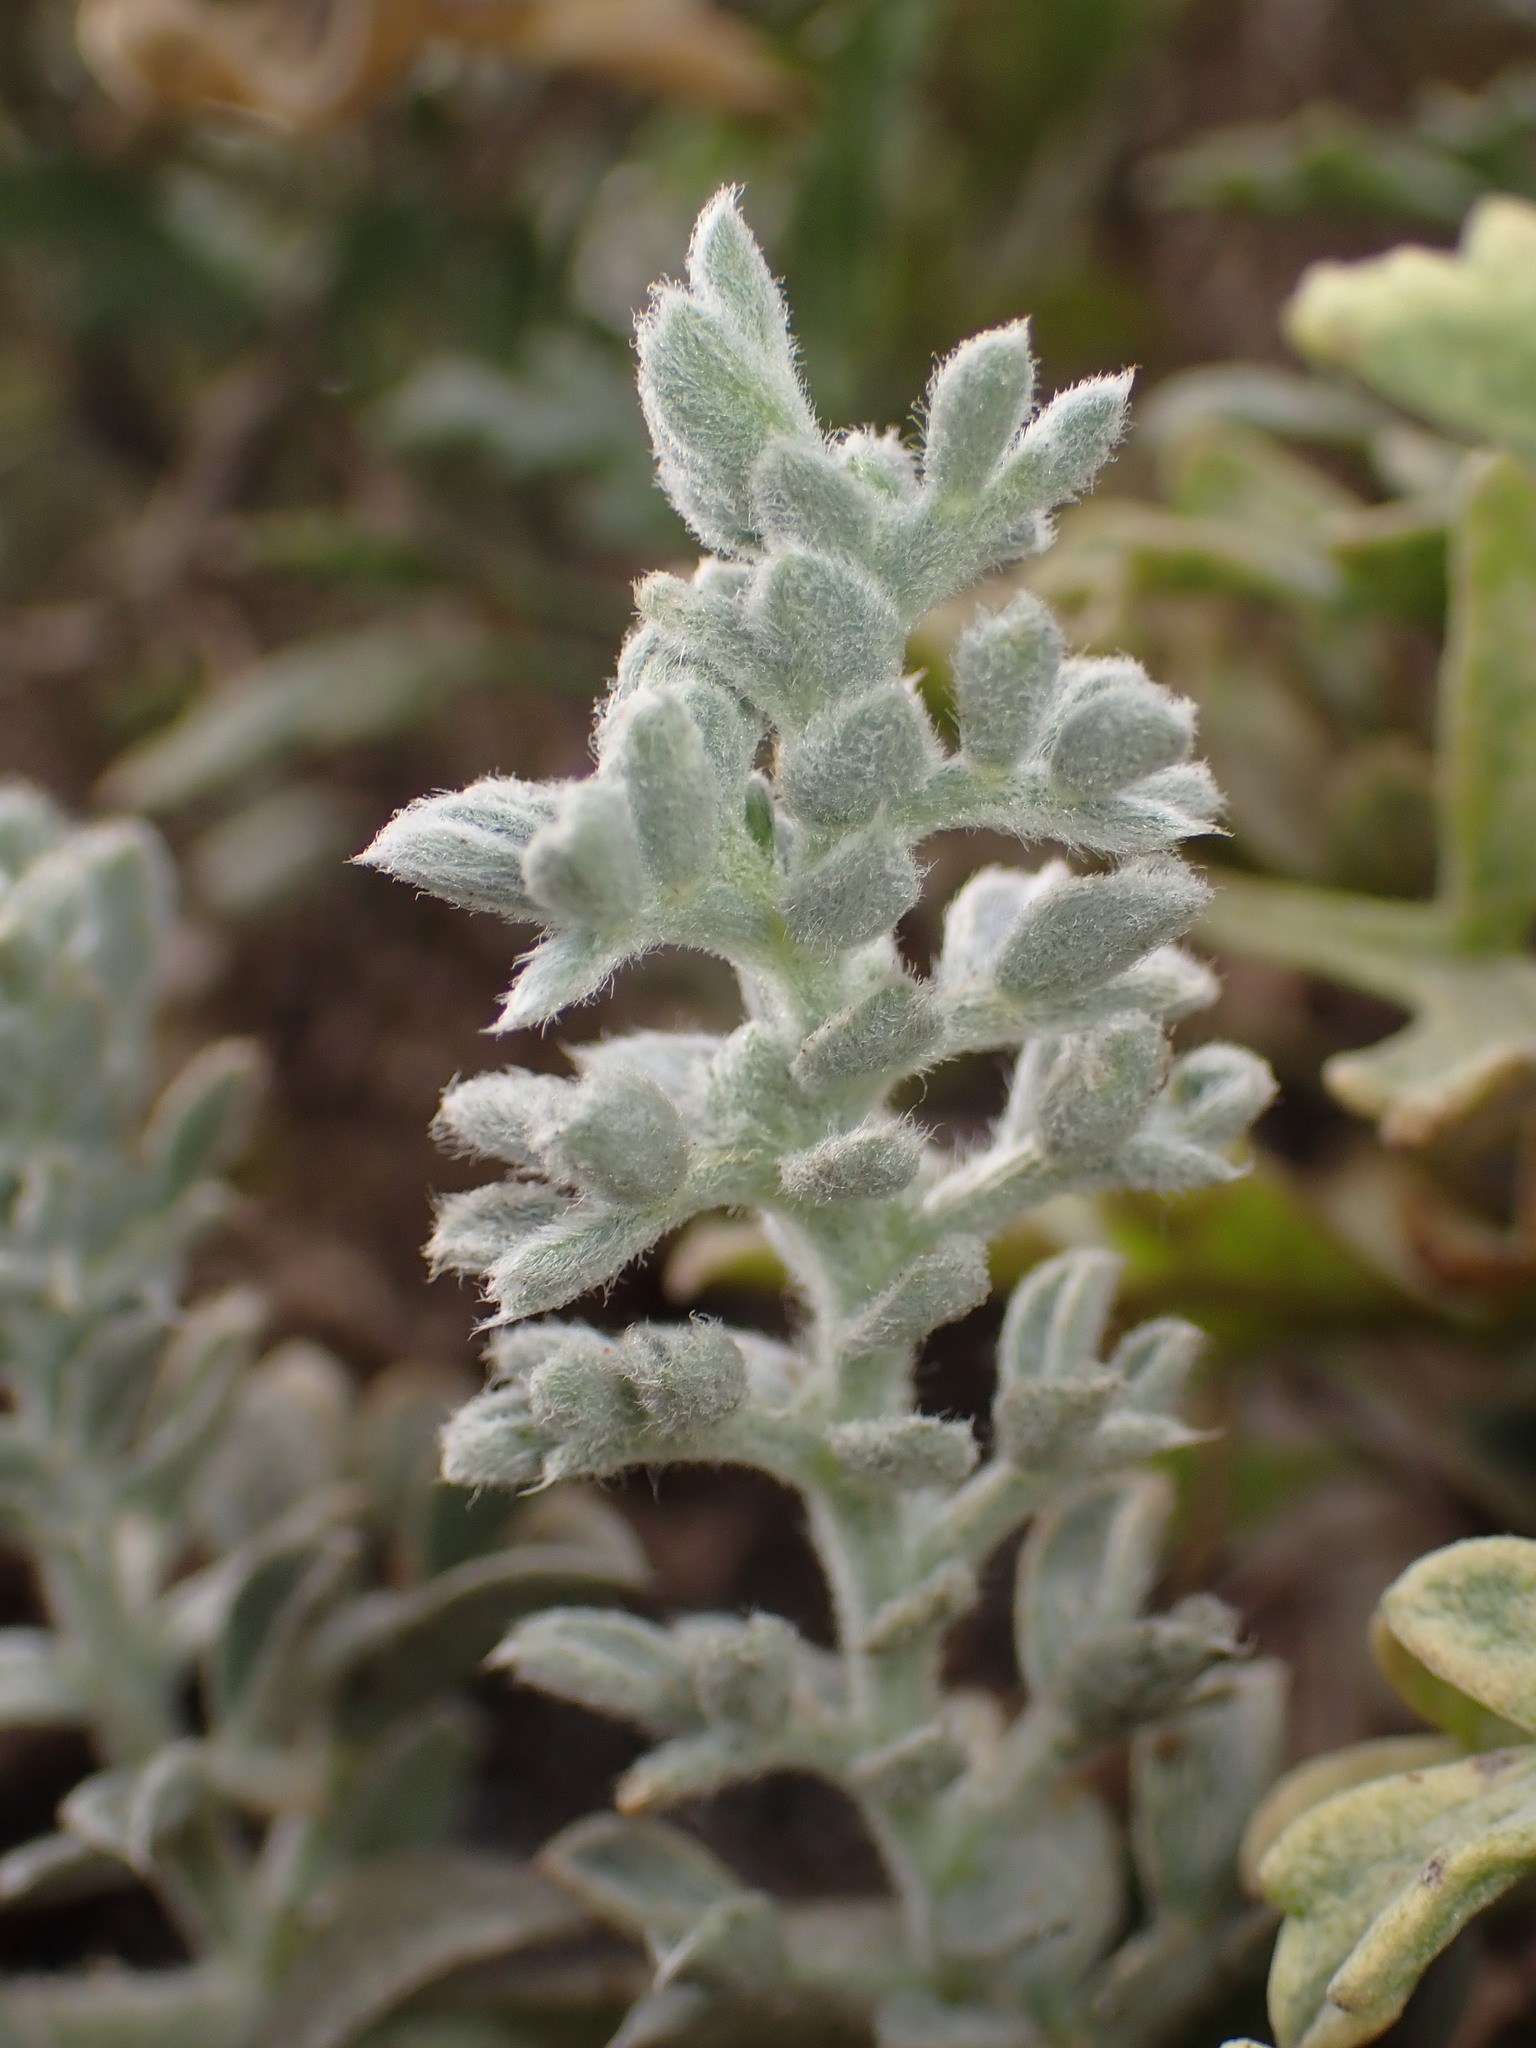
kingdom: Plantae
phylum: Tracheophyta
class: Magnoliopsida
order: Fabales
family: Fabaceae
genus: Lathyrus
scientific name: Lathyrus littoralis
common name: Dune sweet pea
